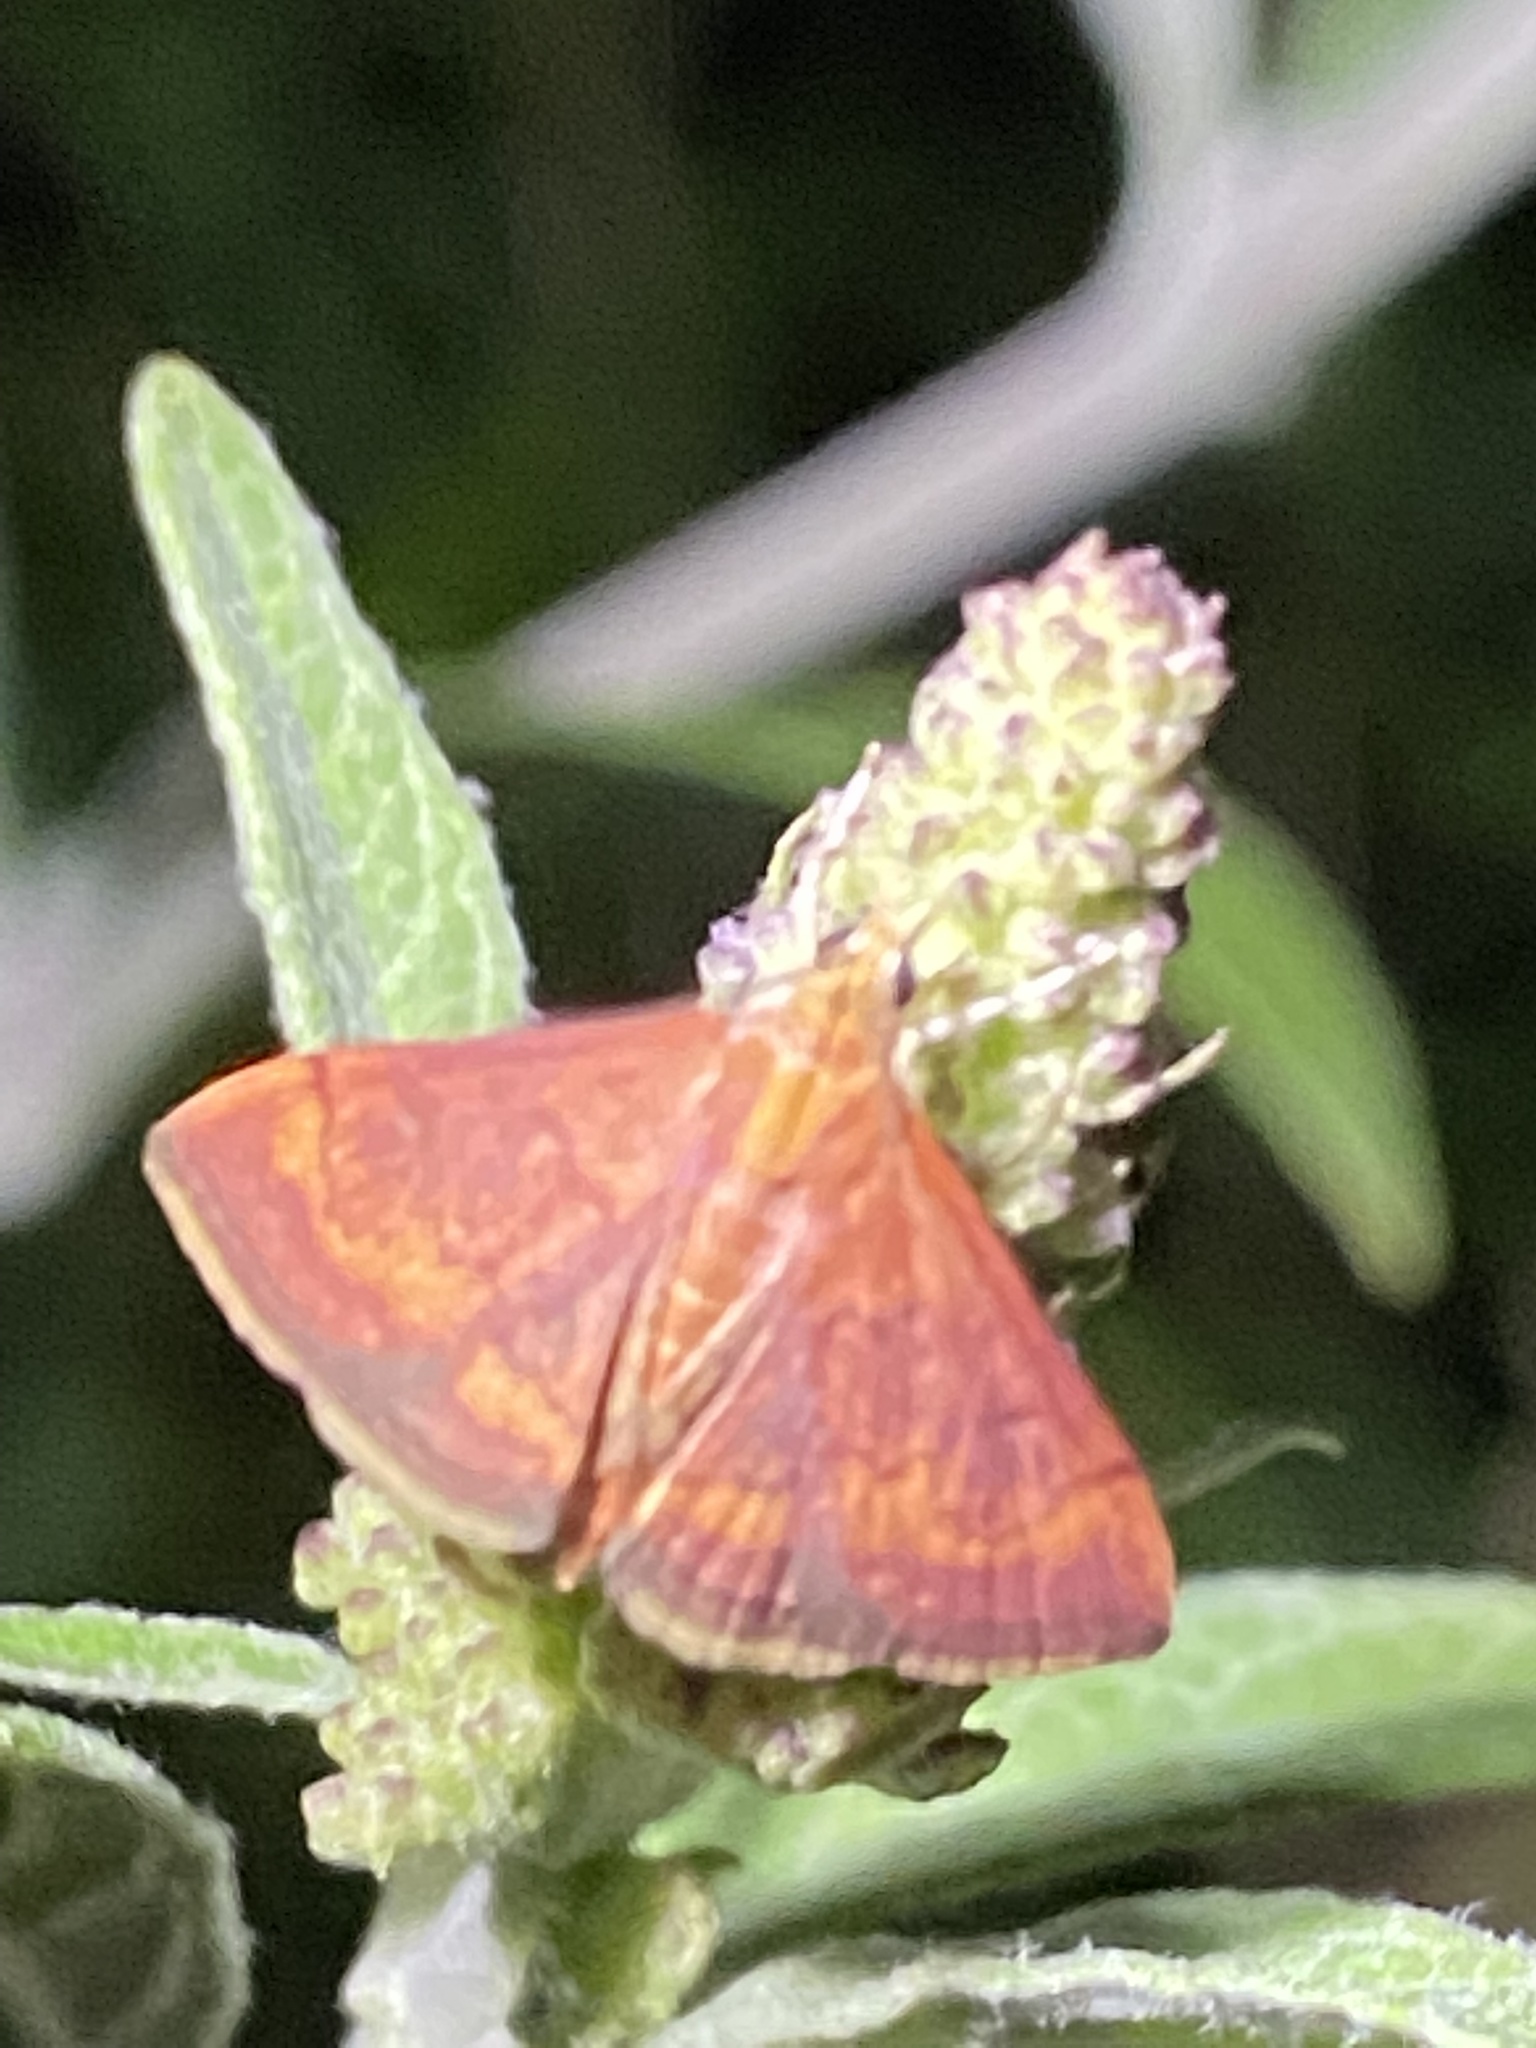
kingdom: Animalia
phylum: Arthropoda
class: Insecta
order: Lepidoptera
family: Crambidae
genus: Pyrausta
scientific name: Pyrausta rubricalis
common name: Variable reddish pyrausta
